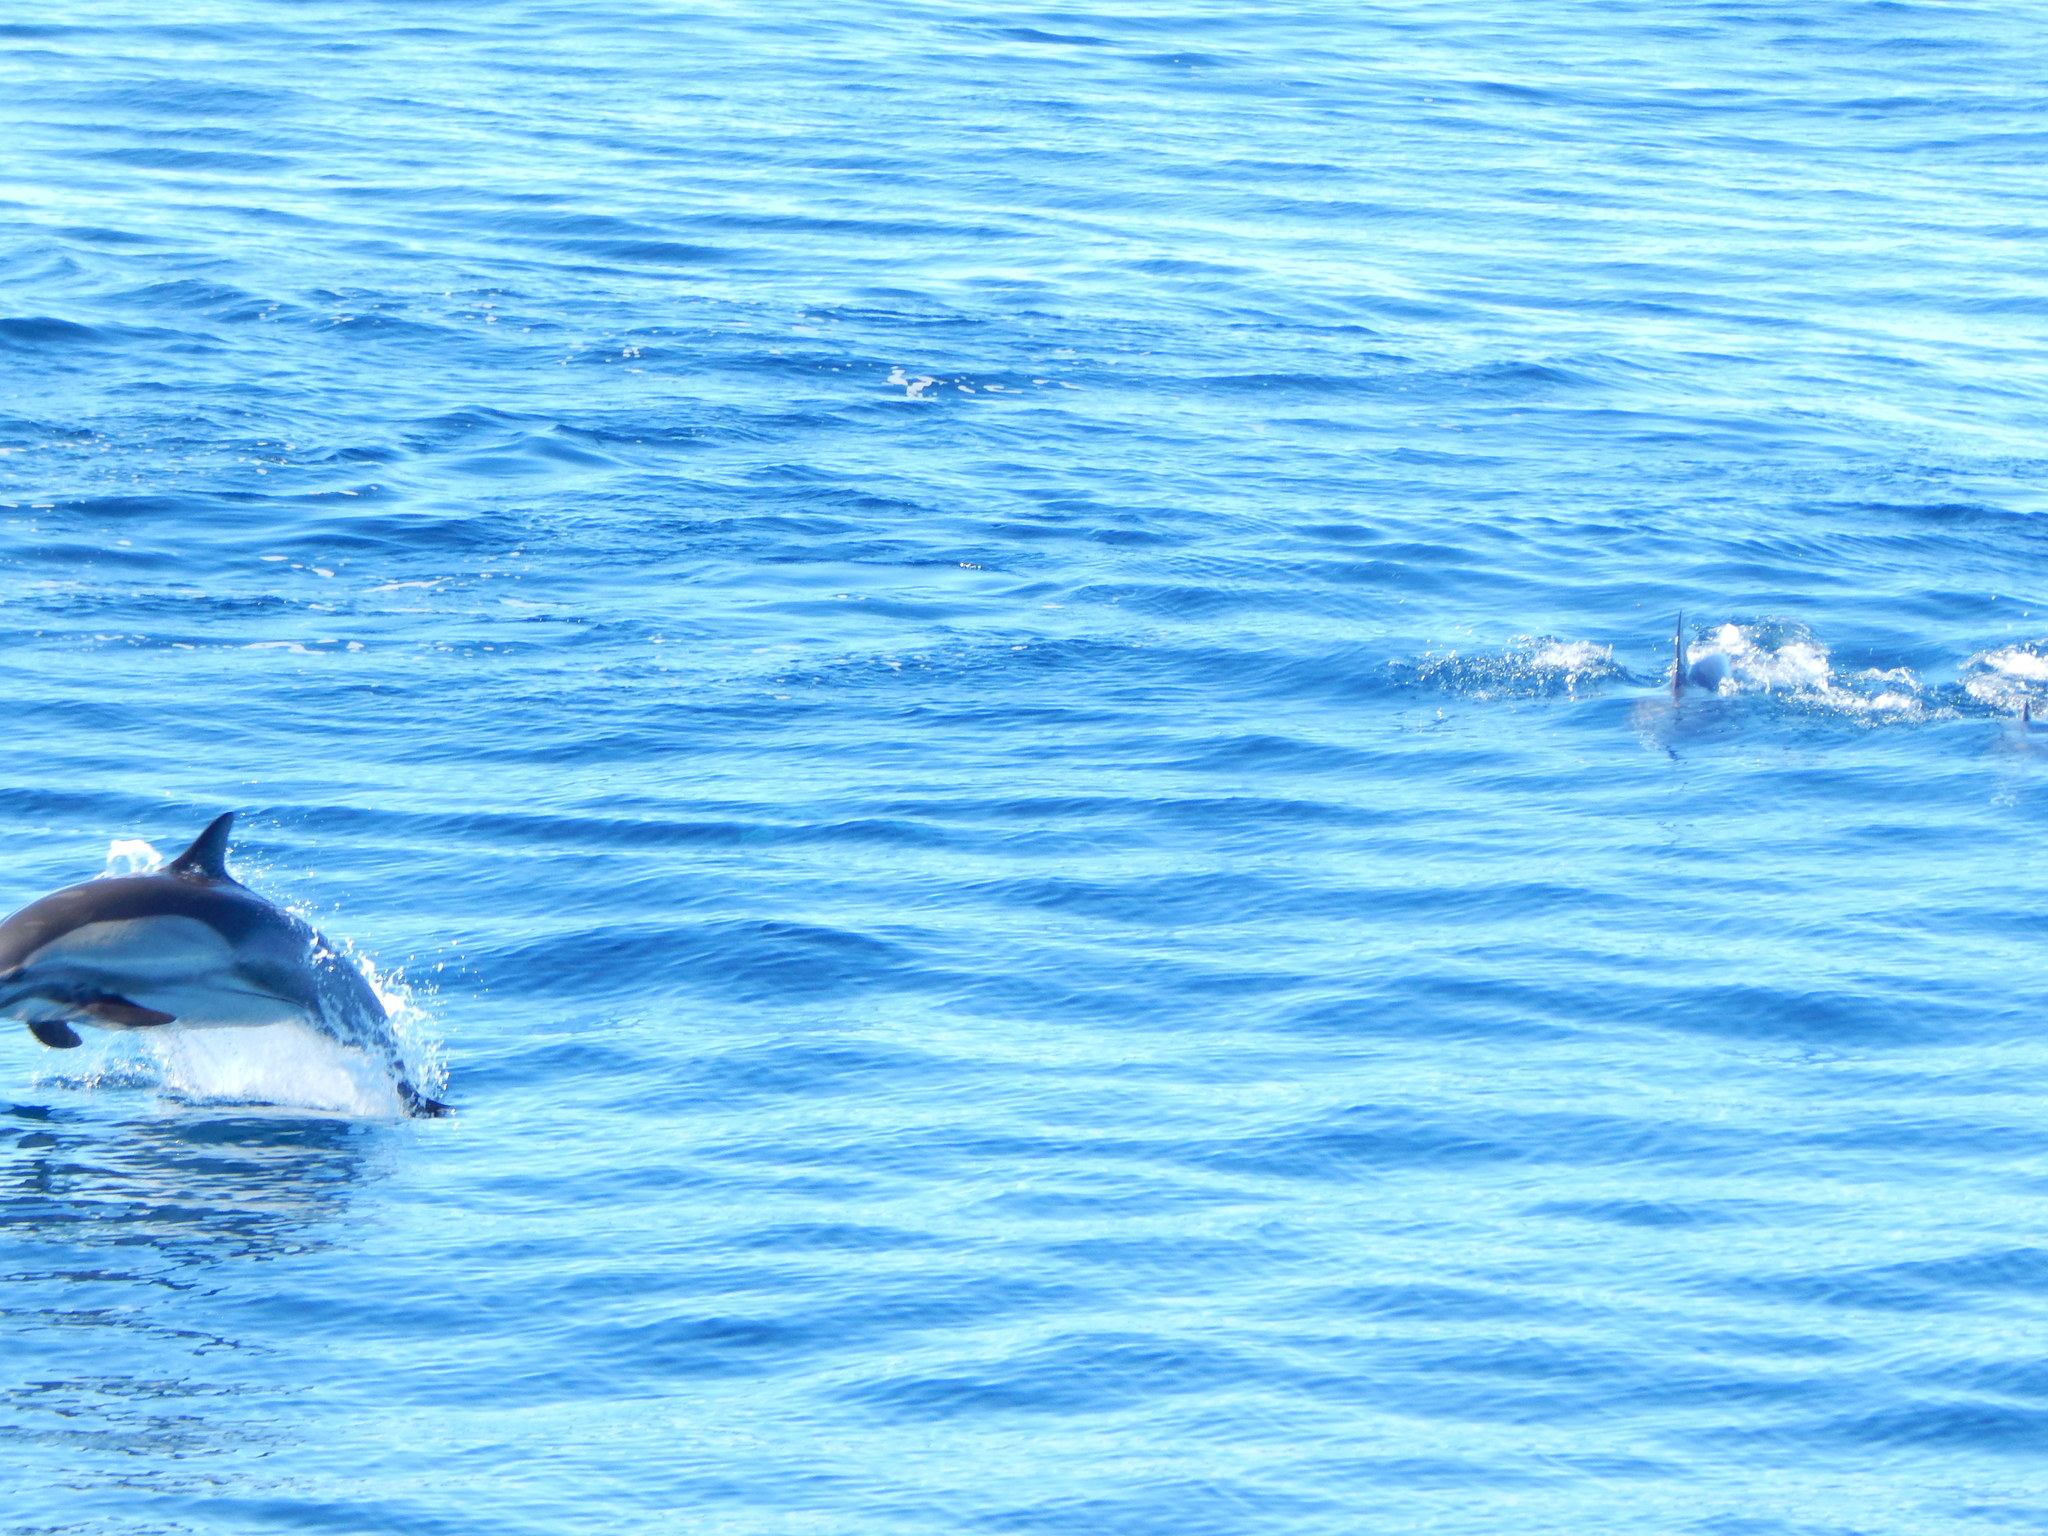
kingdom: Animalia
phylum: Chordata
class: Mammalia
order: Cetacea
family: Delphinidae
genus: Delphinus
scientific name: Delphinus delphis
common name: Common dolphin
